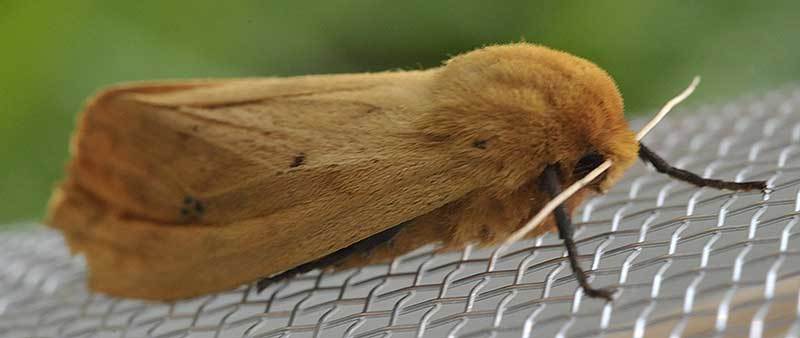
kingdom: Animalia
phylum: Arthropoda
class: Insecta
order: Lepidoptera
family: Erebidae
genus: Pyrrharctia
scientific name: Pyrrharctia isabella
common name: Isabella tiger moth
